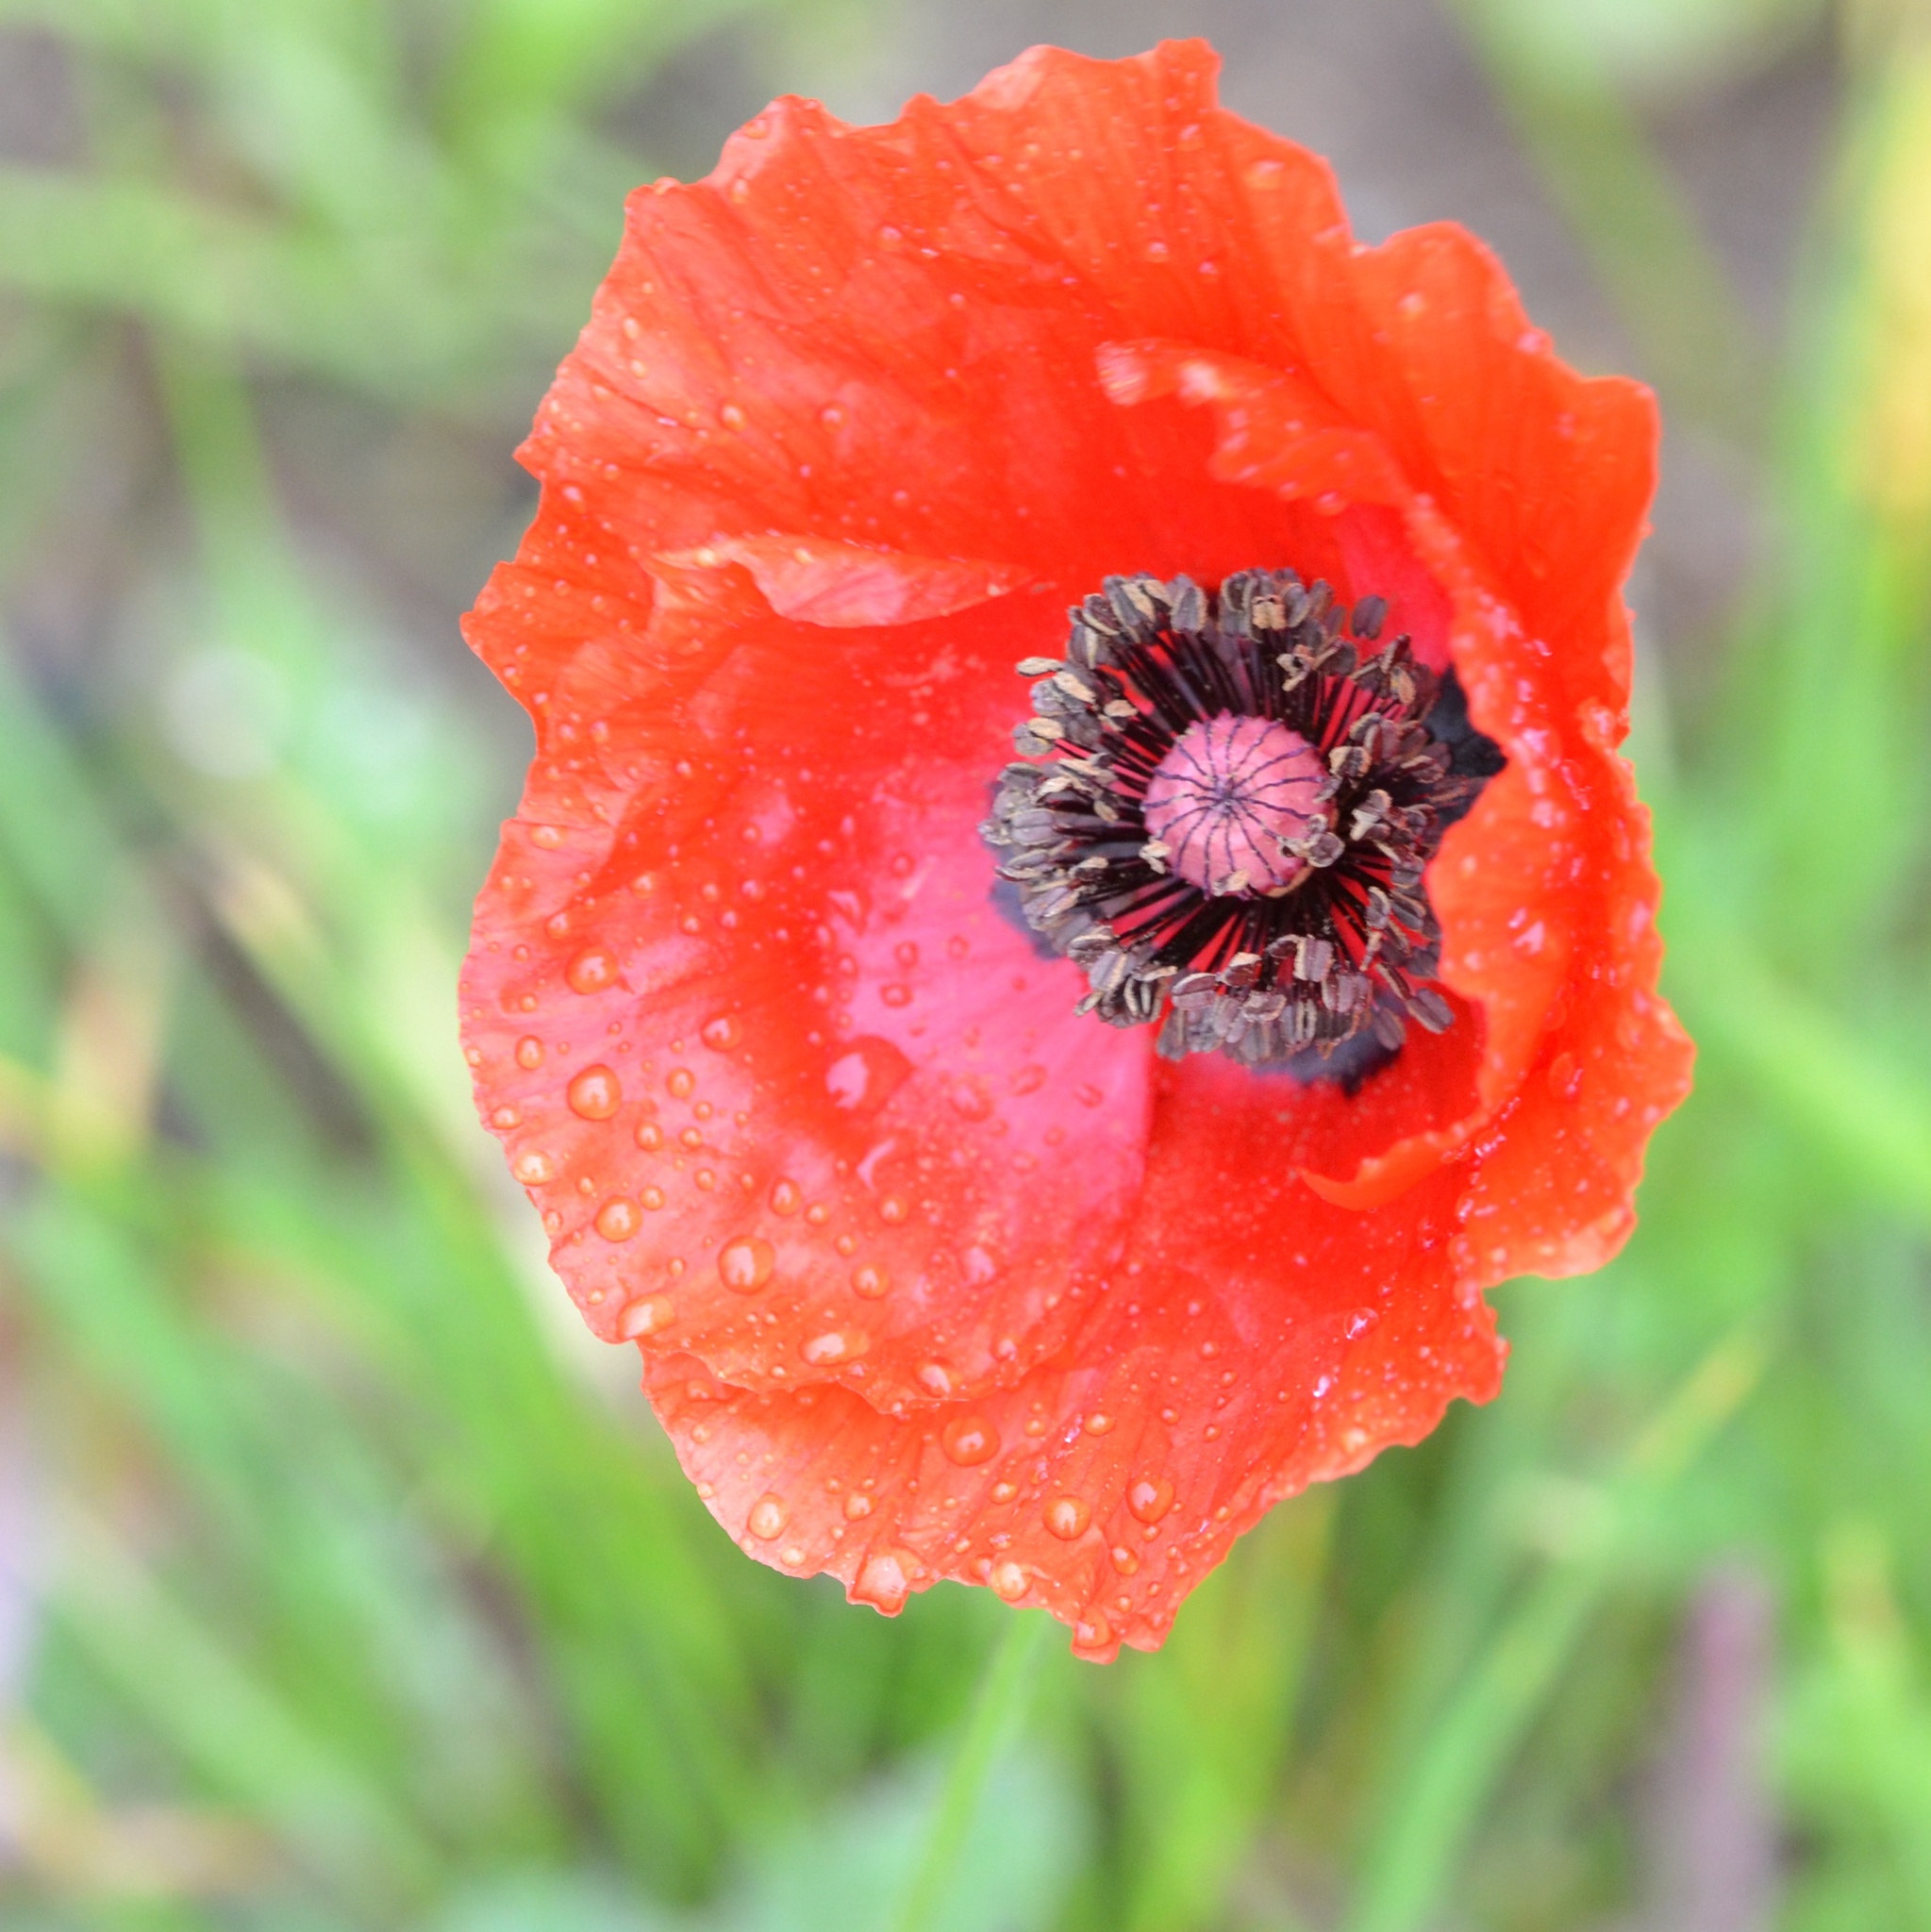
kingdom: Plantae
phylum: Tracheophyta
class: Magnoliopsida
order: Ranunculales
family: Papaveraceae
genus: Papaver
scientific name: Papaver rhoeas
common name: Corn poppy
